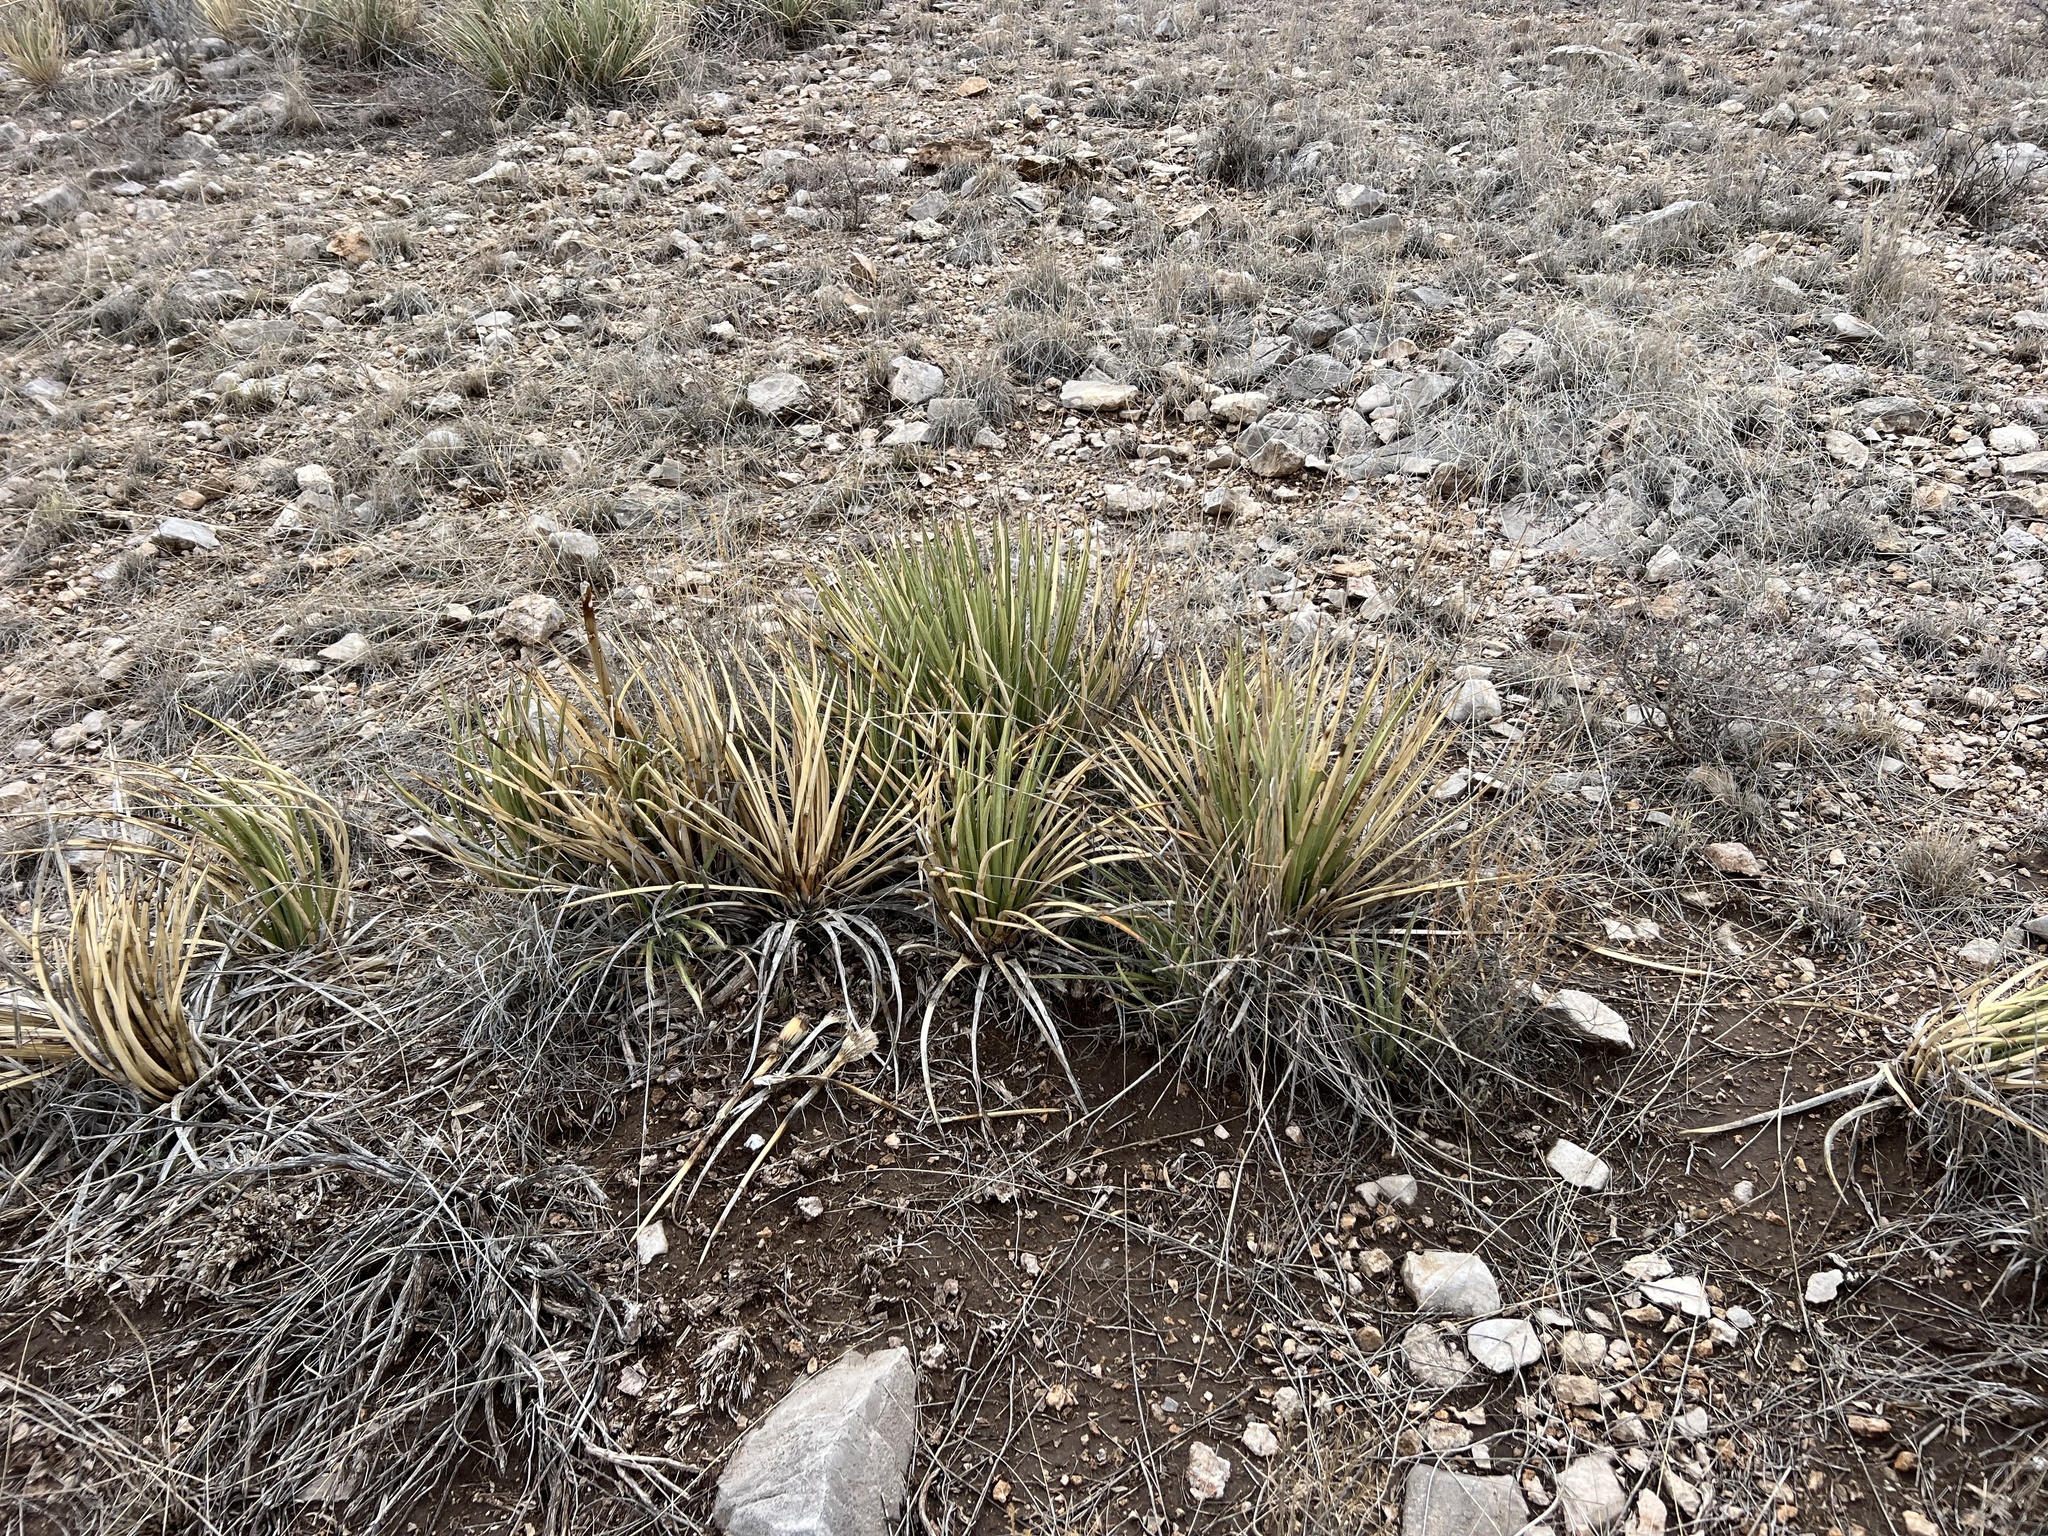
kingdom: Plantae
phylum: Tracheophyta
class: Liliopsida
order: Asparagales
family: Asparagaceae
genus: Agave
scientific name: Agave schottii
